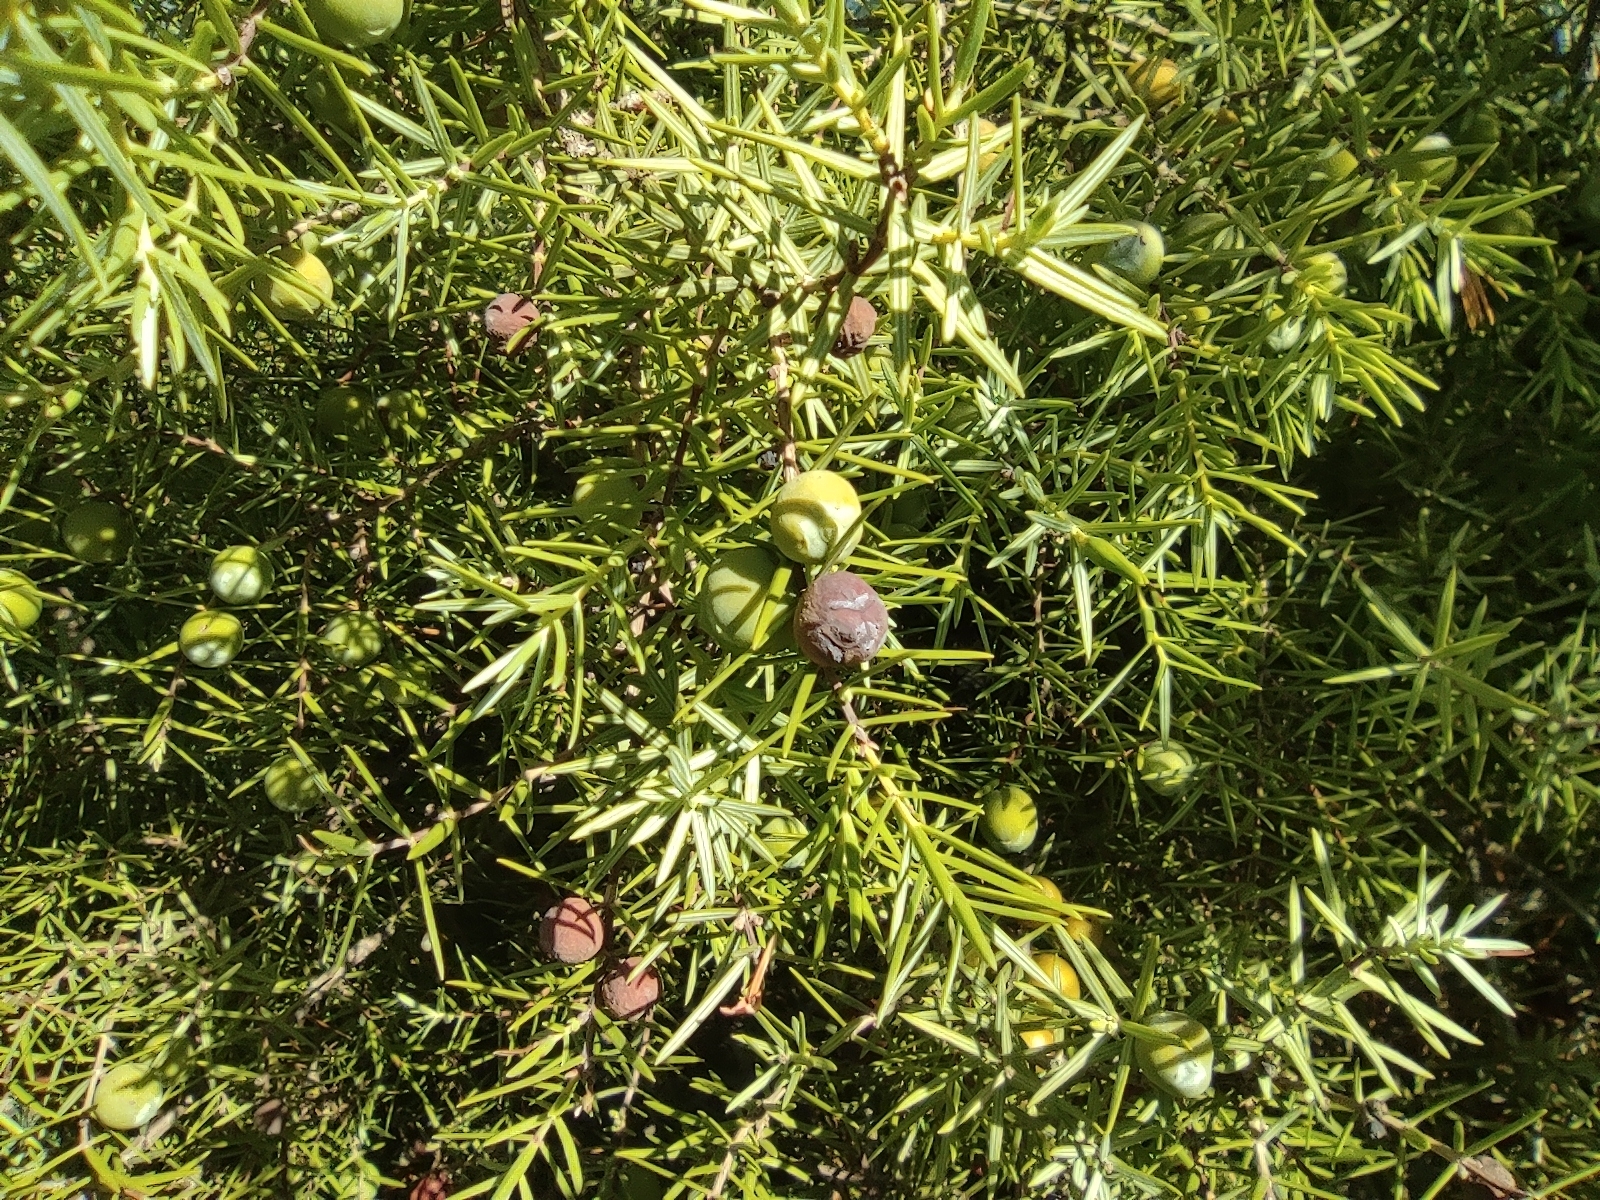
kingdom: Plantae
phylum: Tracheophyta
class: Pinopsida
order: Pinales
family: Cupressaceae
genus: Juniperus
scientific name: Juniperus oxycedrus
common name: Prickly juniper
